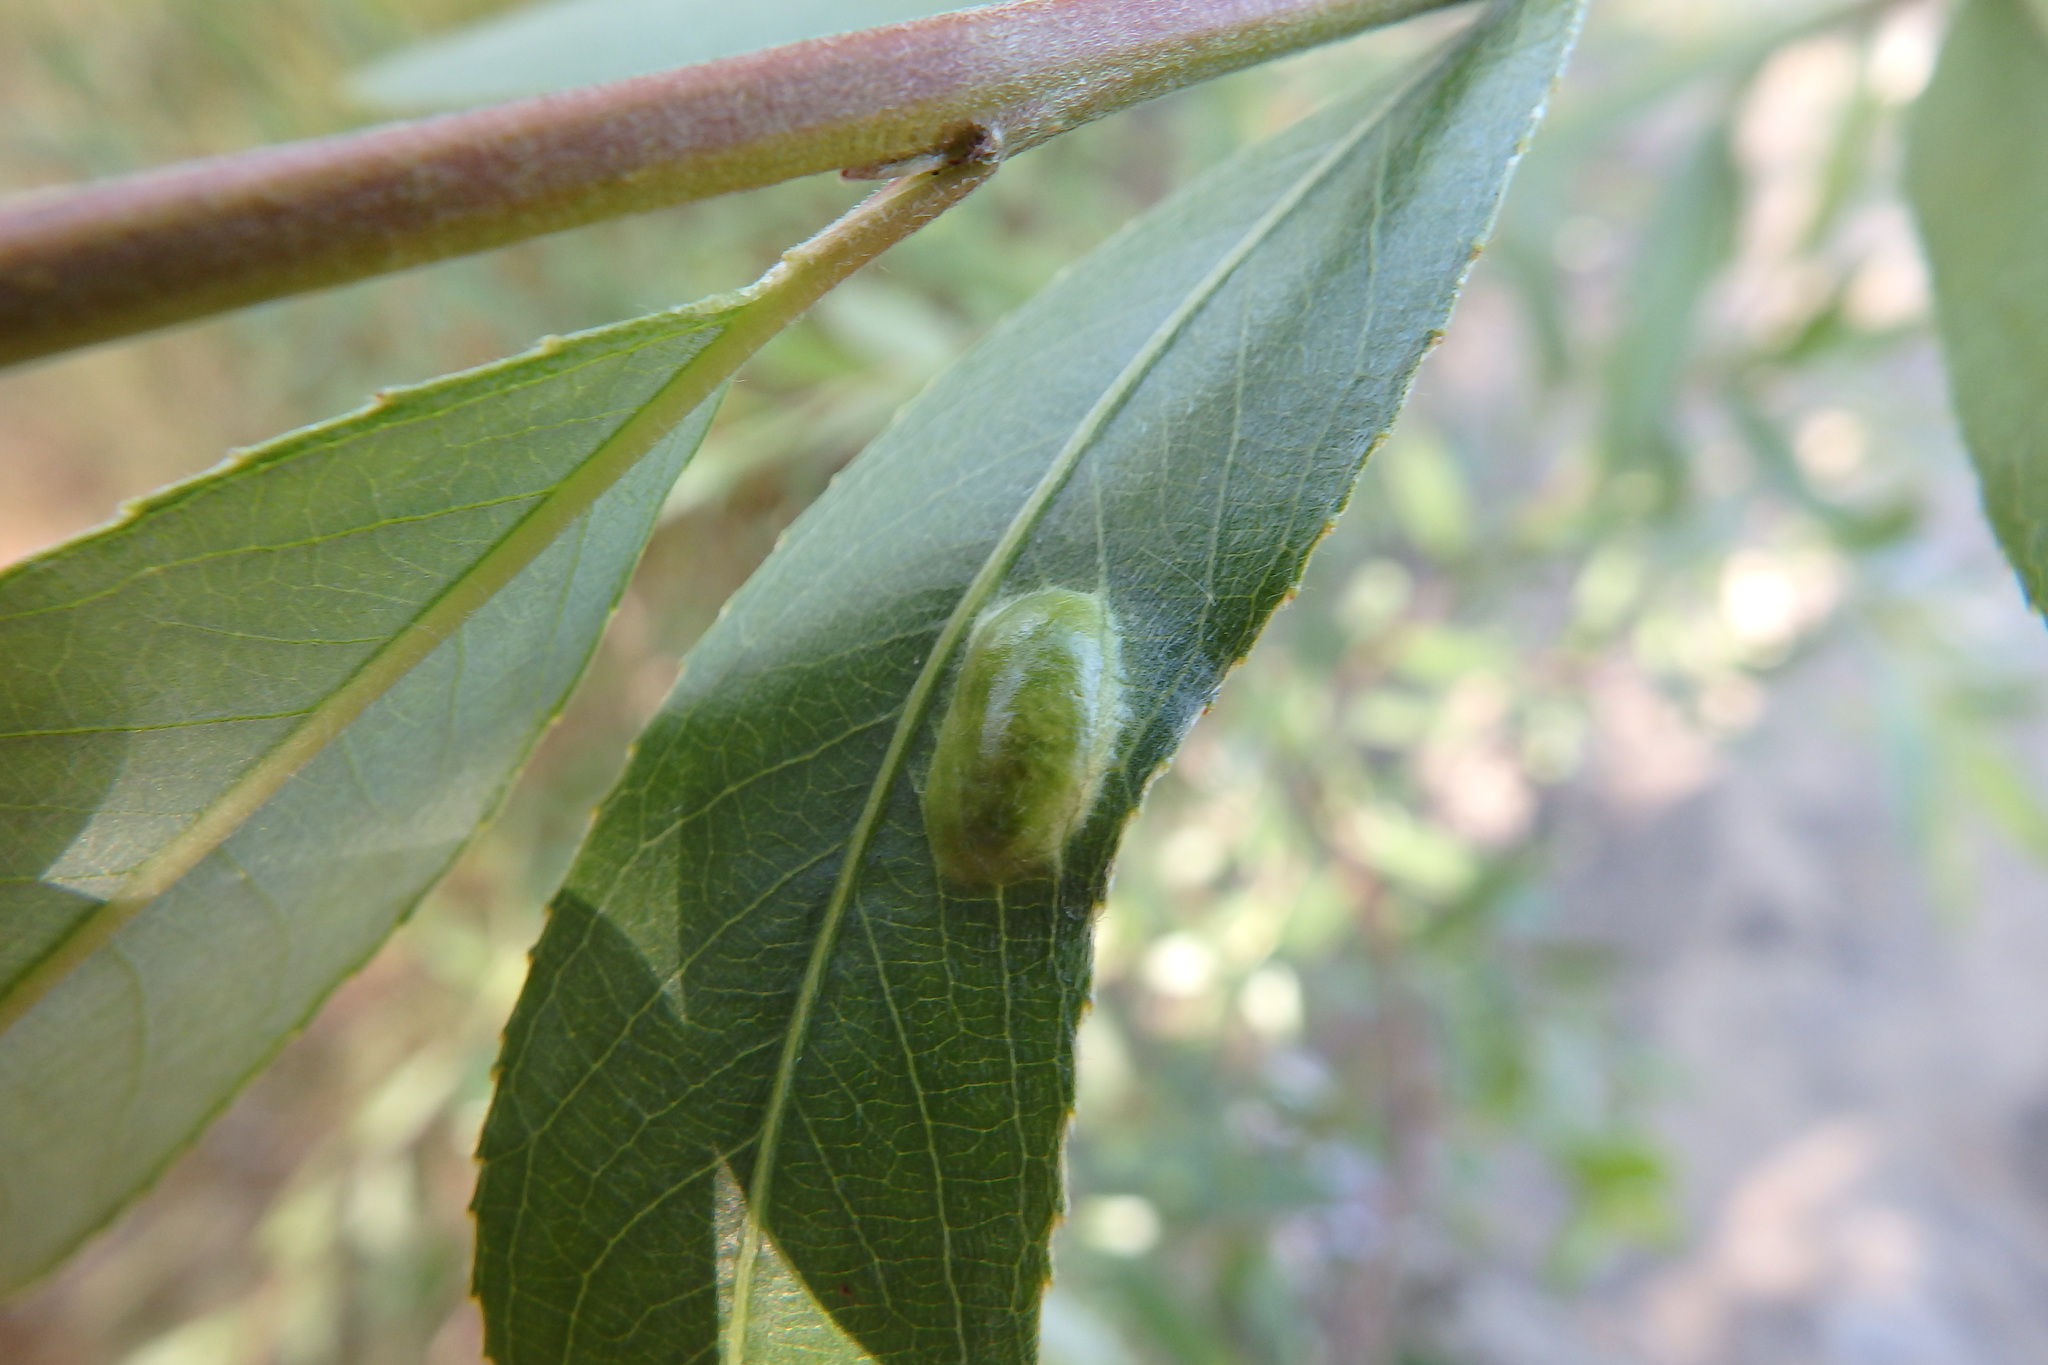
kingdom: Animalia
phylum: Arthropoda
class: Insecta
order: Hymenoptera
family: Tenthredinidae
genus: Pontania
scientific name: Pontania proxima
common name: Common sawfly
